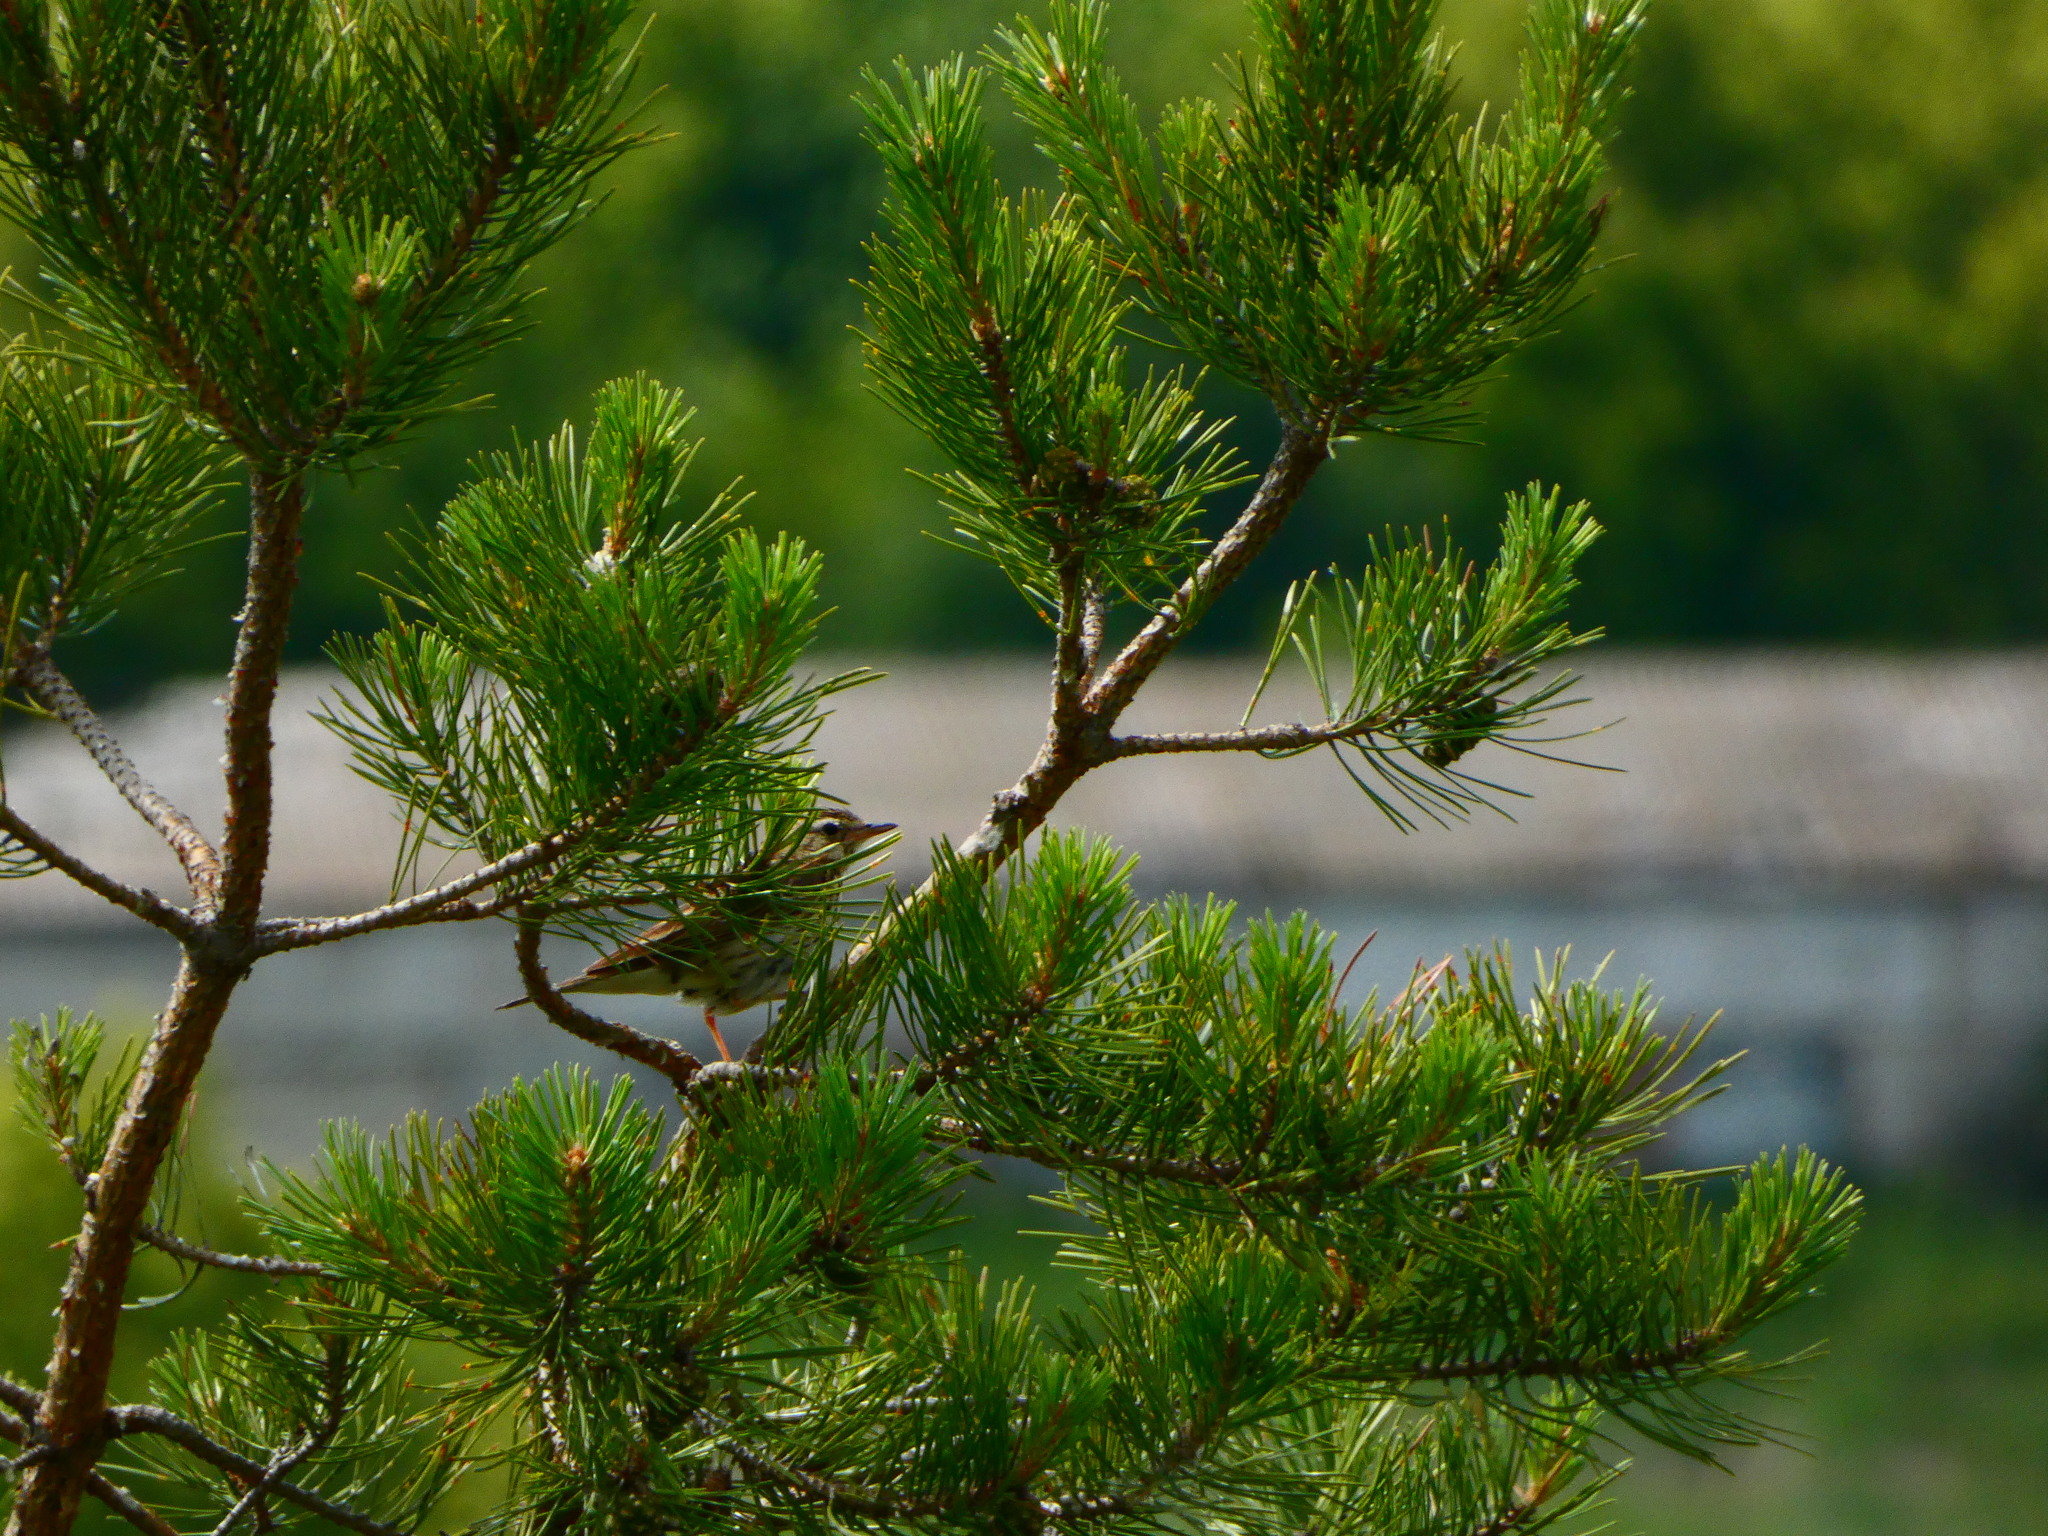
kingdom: Animalia
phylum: Chordata
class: Aves
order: Passeriformes
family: Motacillidae
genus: Anthus
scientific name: Anthus trivialis
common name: Tree pipit
